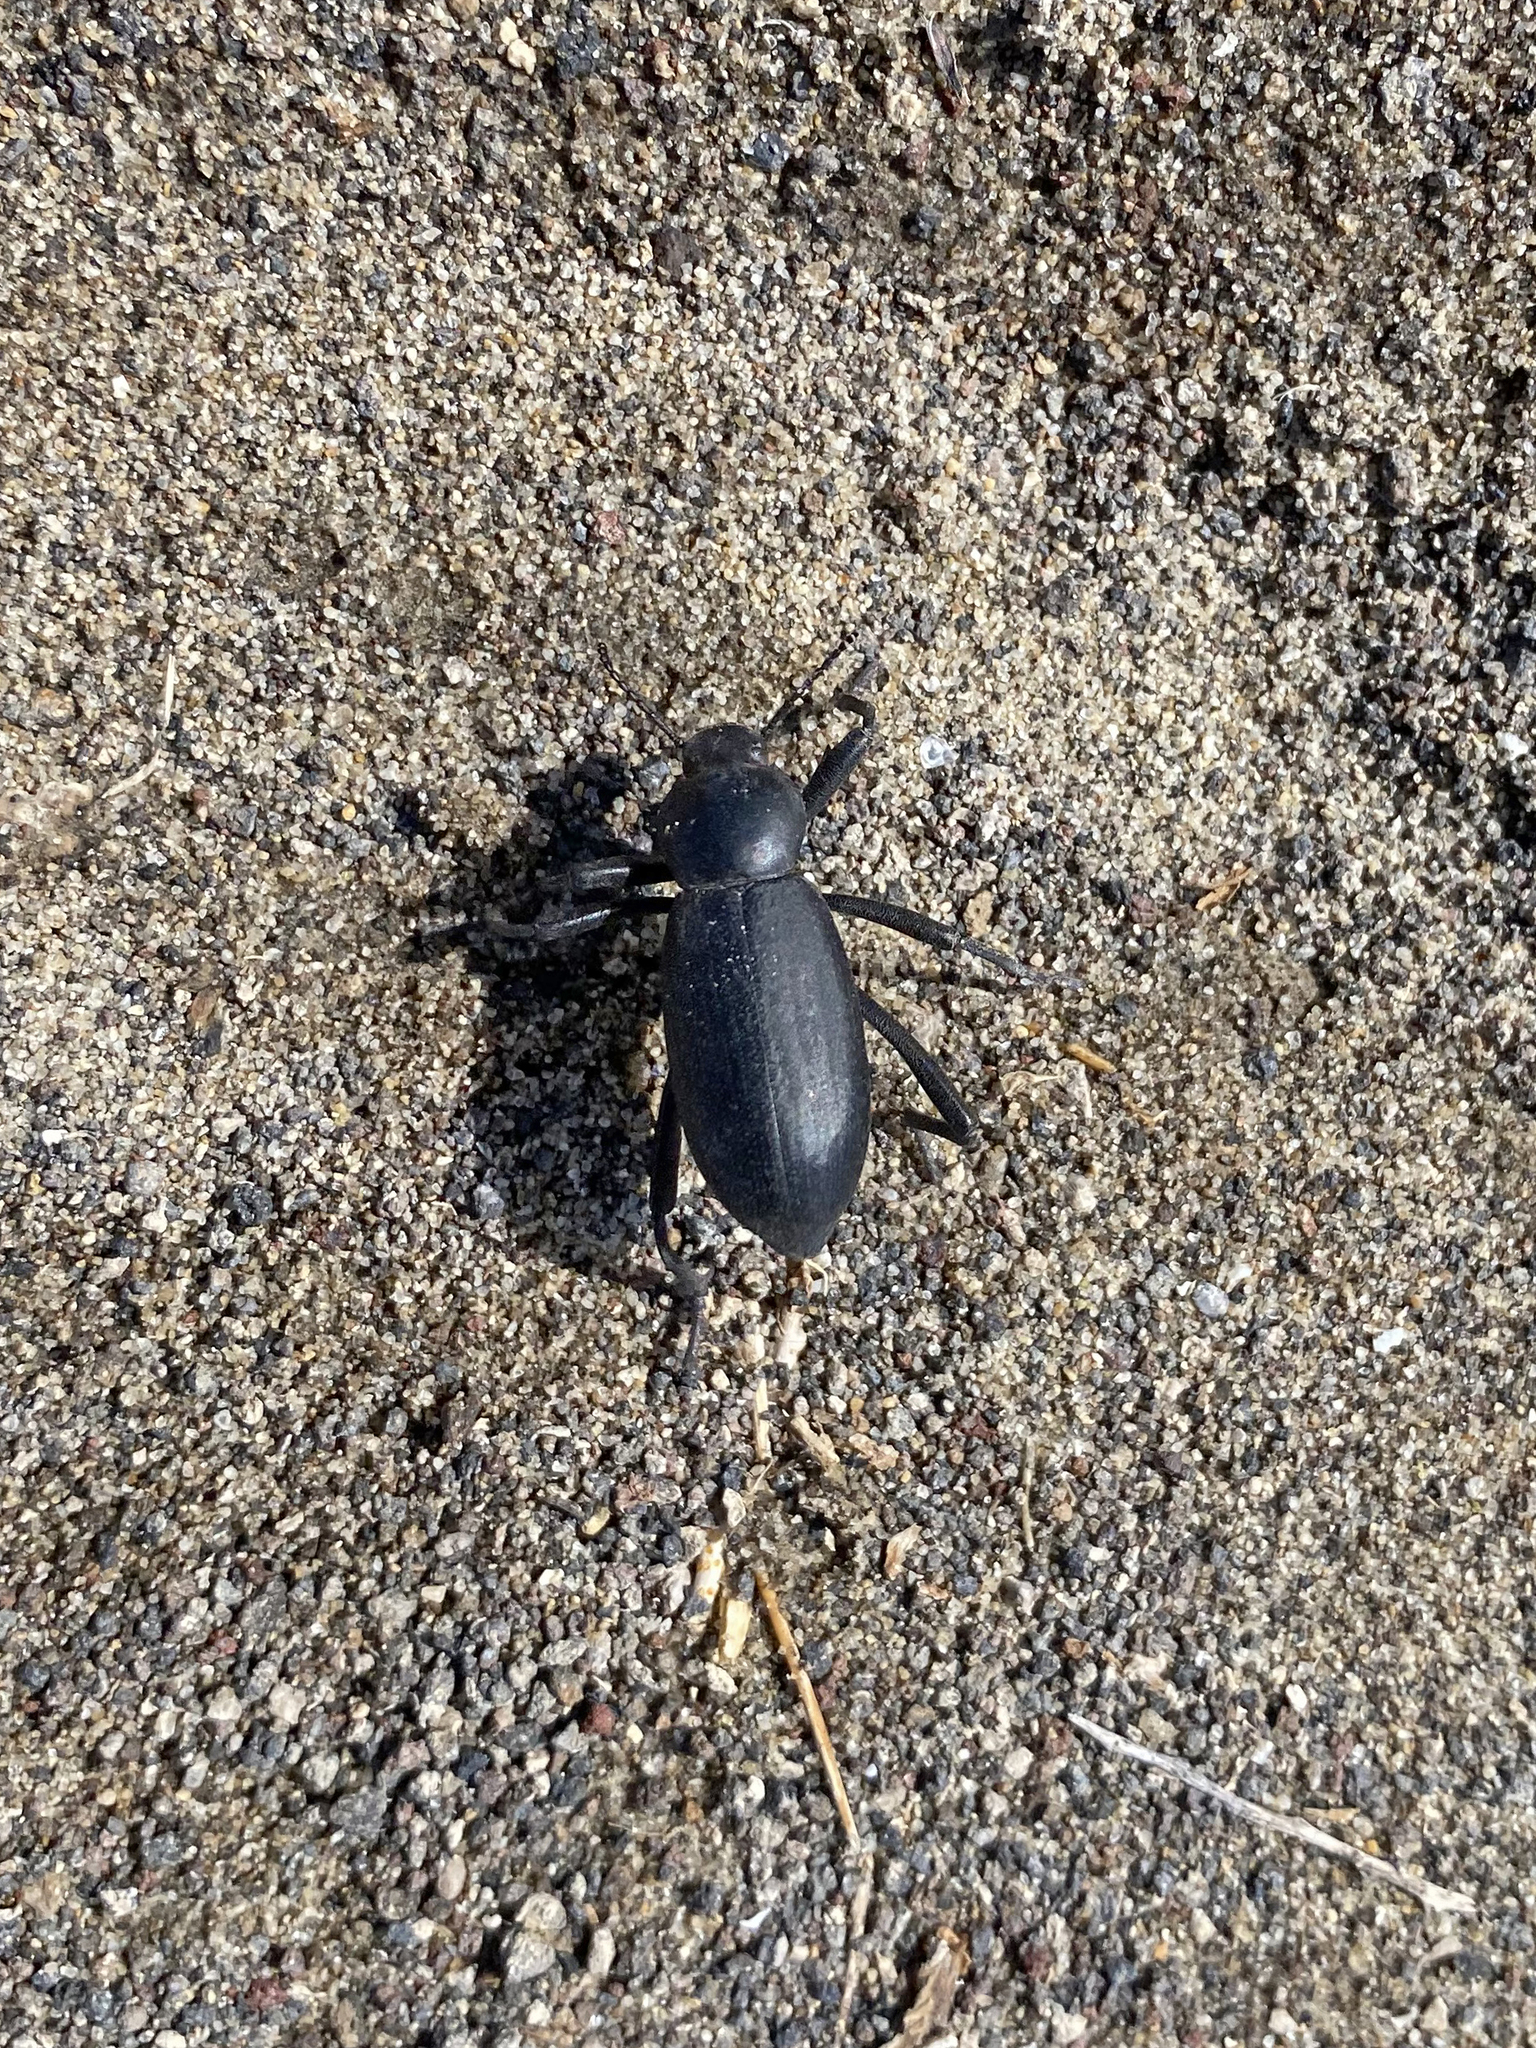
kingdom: Animalia
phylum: Arthropoda
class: Insecta
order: Coleoptera
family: Tenebrionidae
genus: Eleodes
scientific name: Eleodes armata
